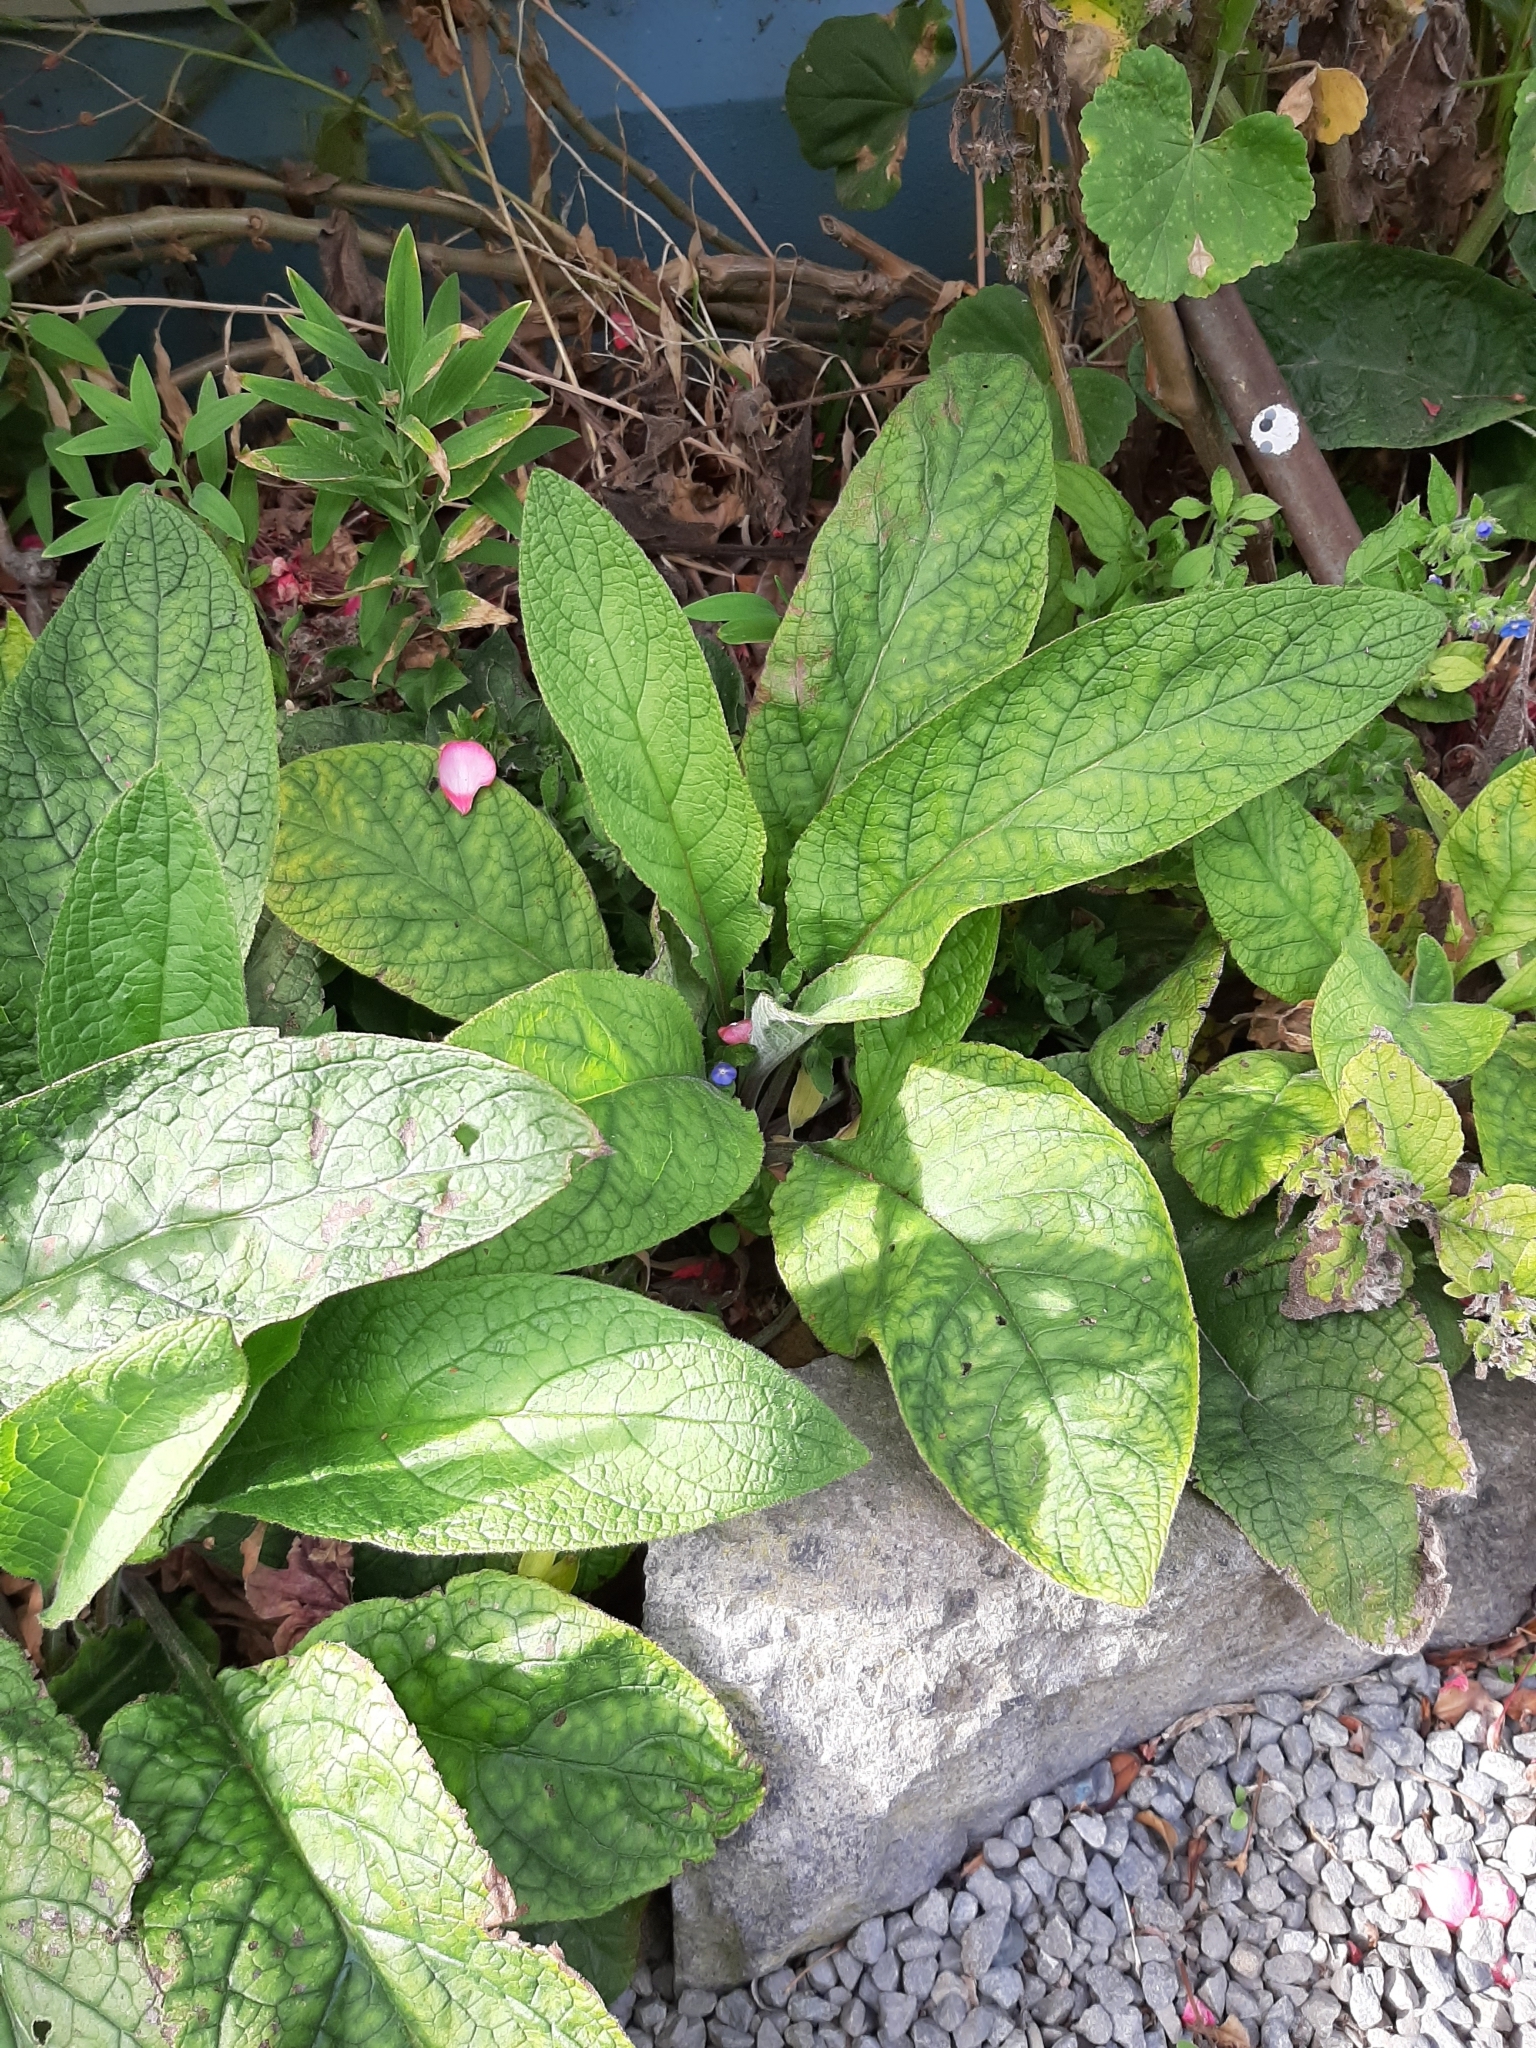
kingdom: Plantae
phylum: Tracheophyta
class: Magnoliopsida
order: Boraginales
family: Boraginaceae
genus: Pentaglottis
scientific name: Pentaglottis sempervirens
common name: Green alkanet
